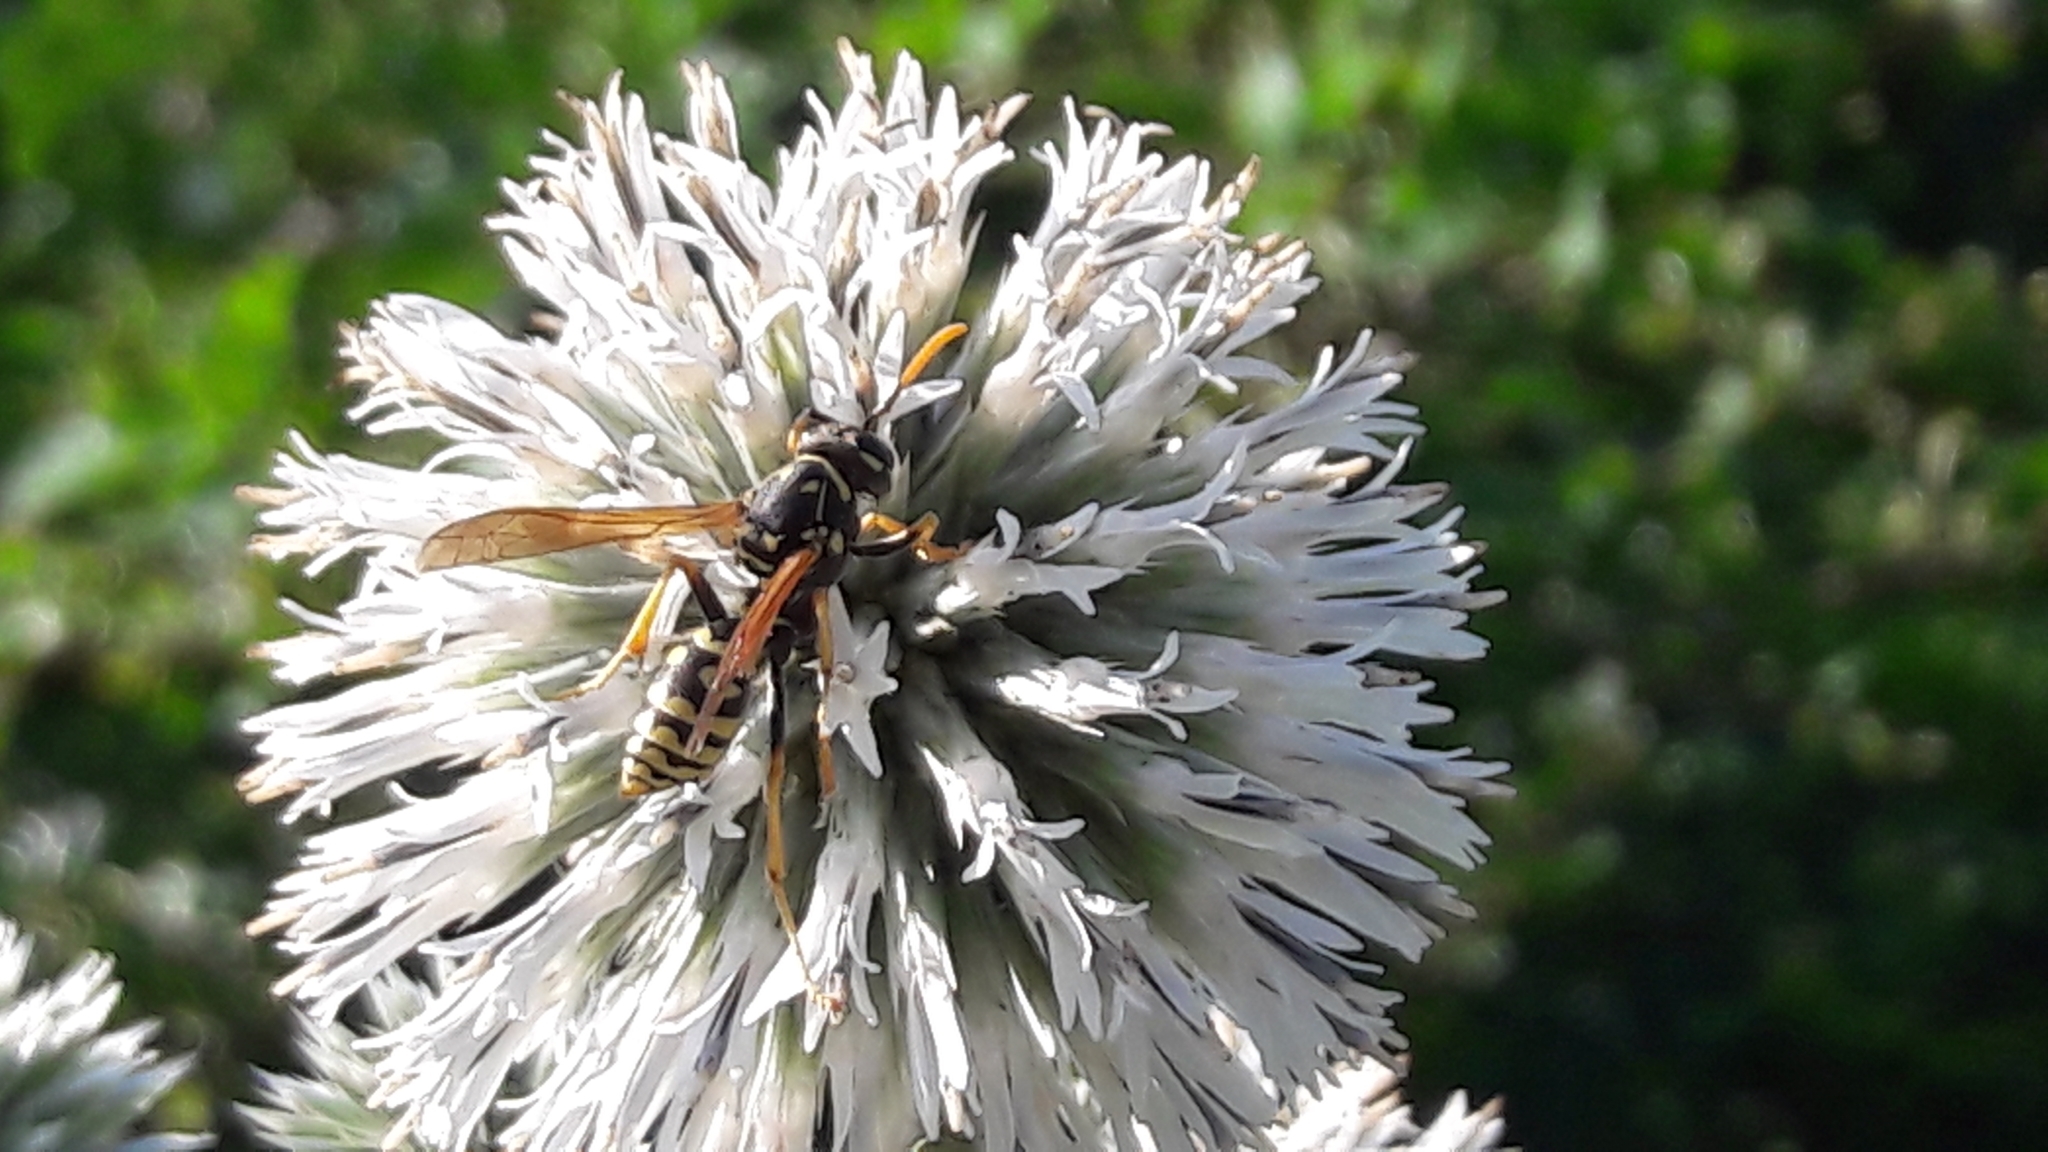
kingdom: Animalia
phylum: Arthropoda
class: Insecta
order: Hymenoptera
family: Eumenidae
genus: Polistes
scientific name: Polistes dominula
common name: Paper wasp
